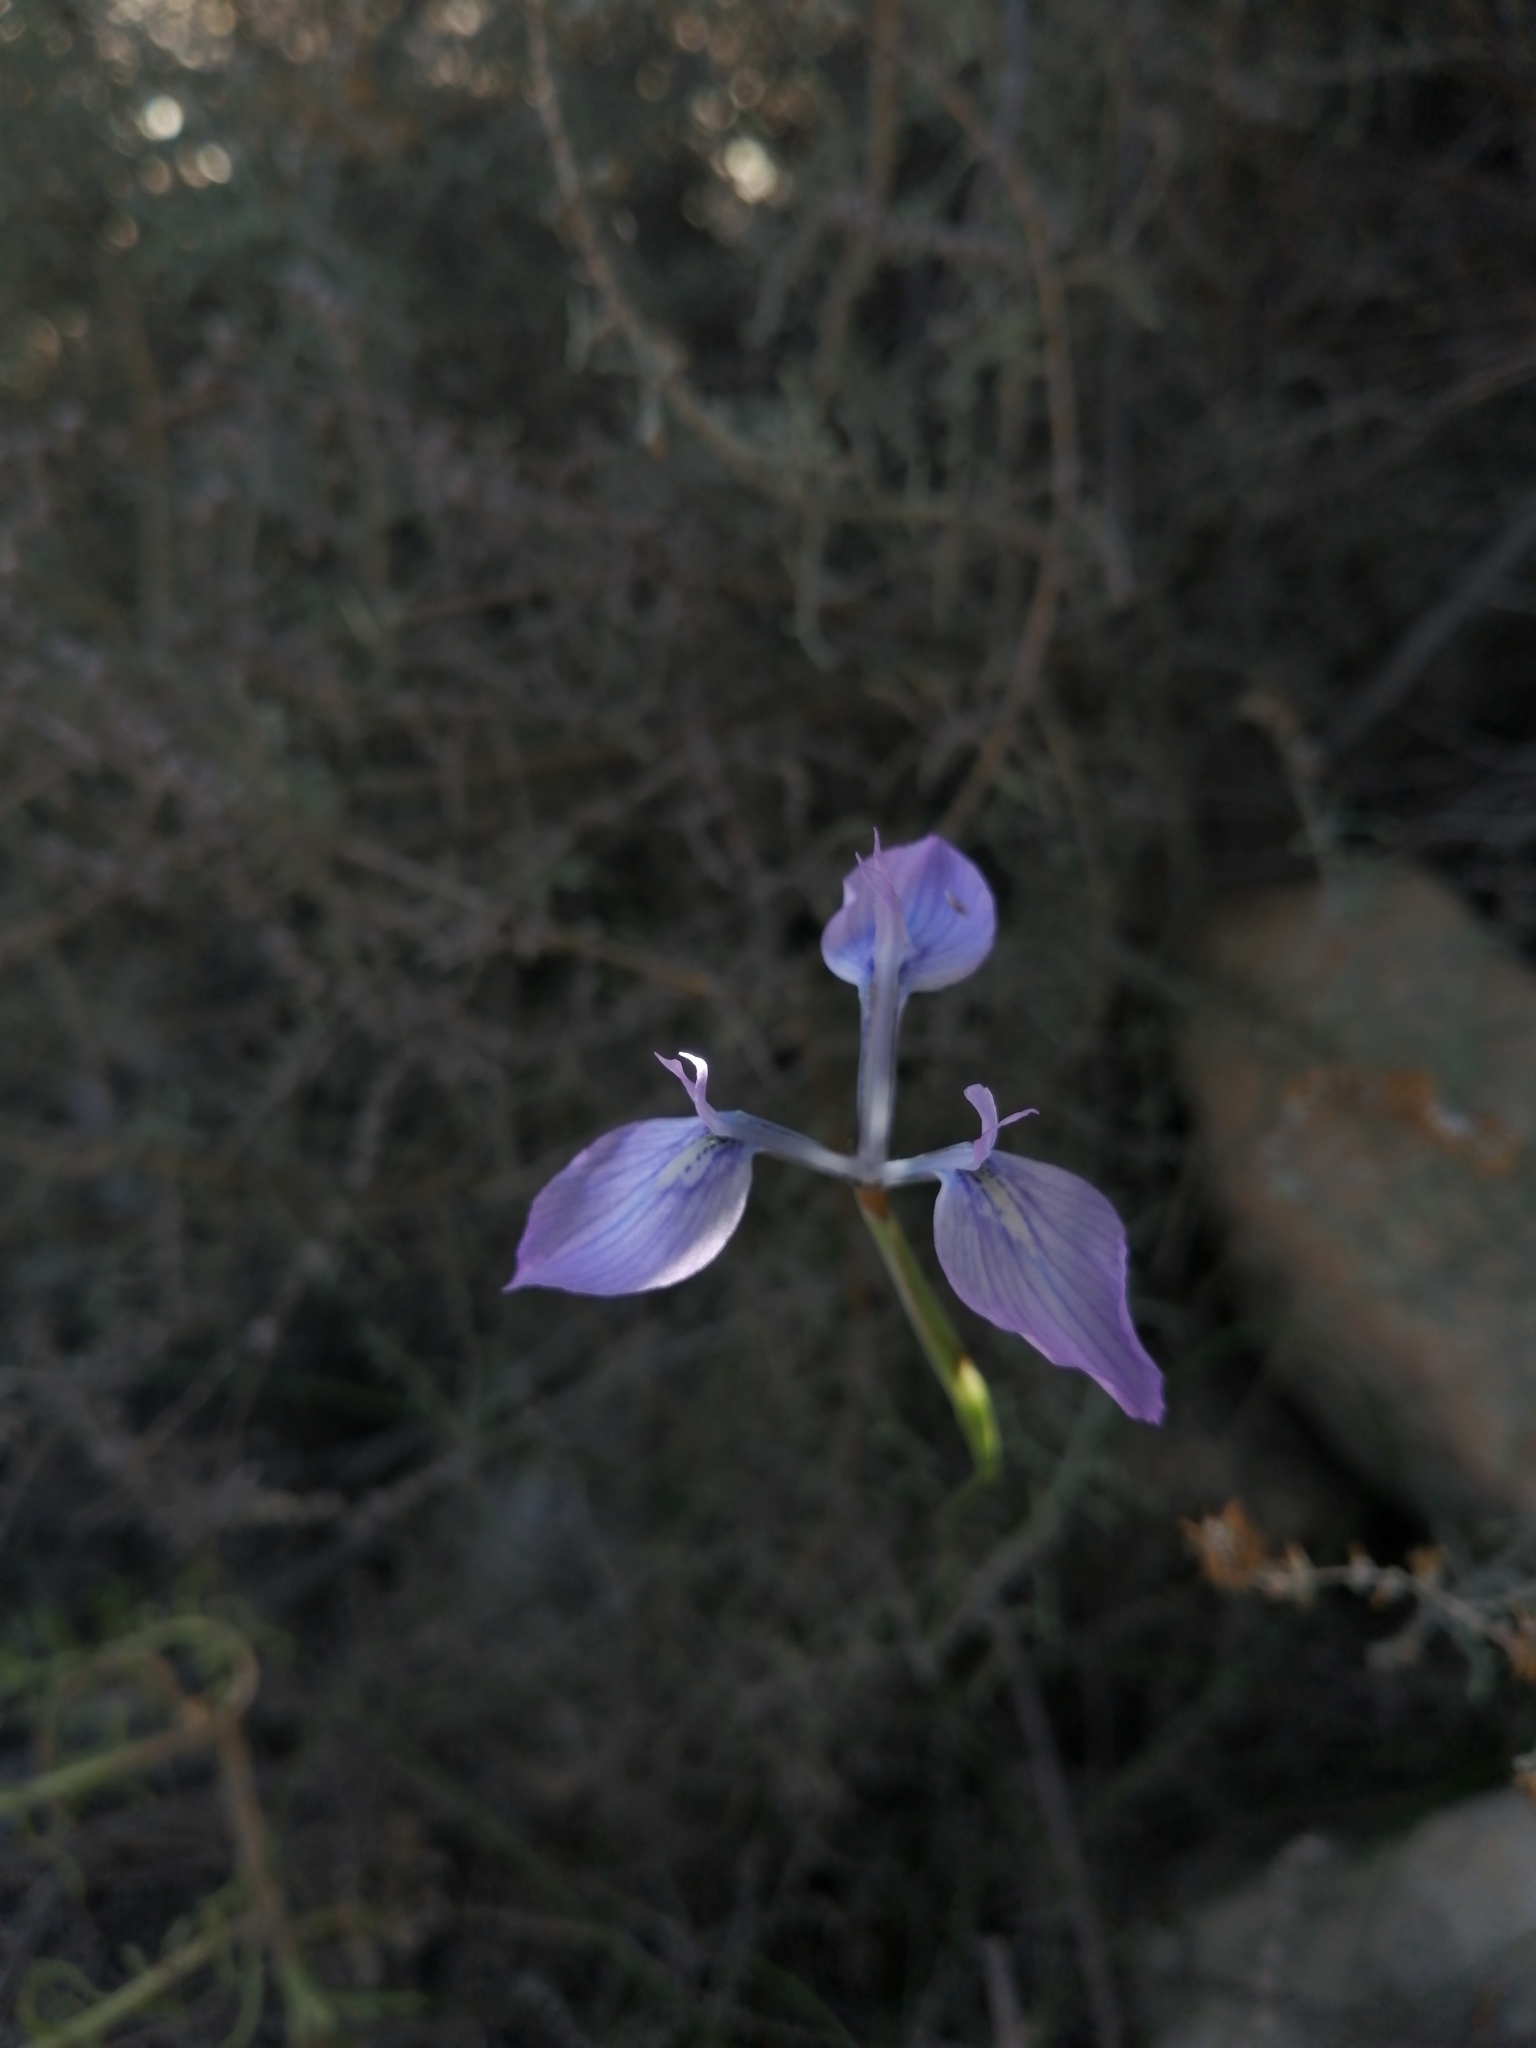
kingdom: Plantae
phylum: Tracheophyta
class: Liliopsida
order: Asparagales
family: Iridaceae
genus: Moraea
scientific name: Moraea tripetala
